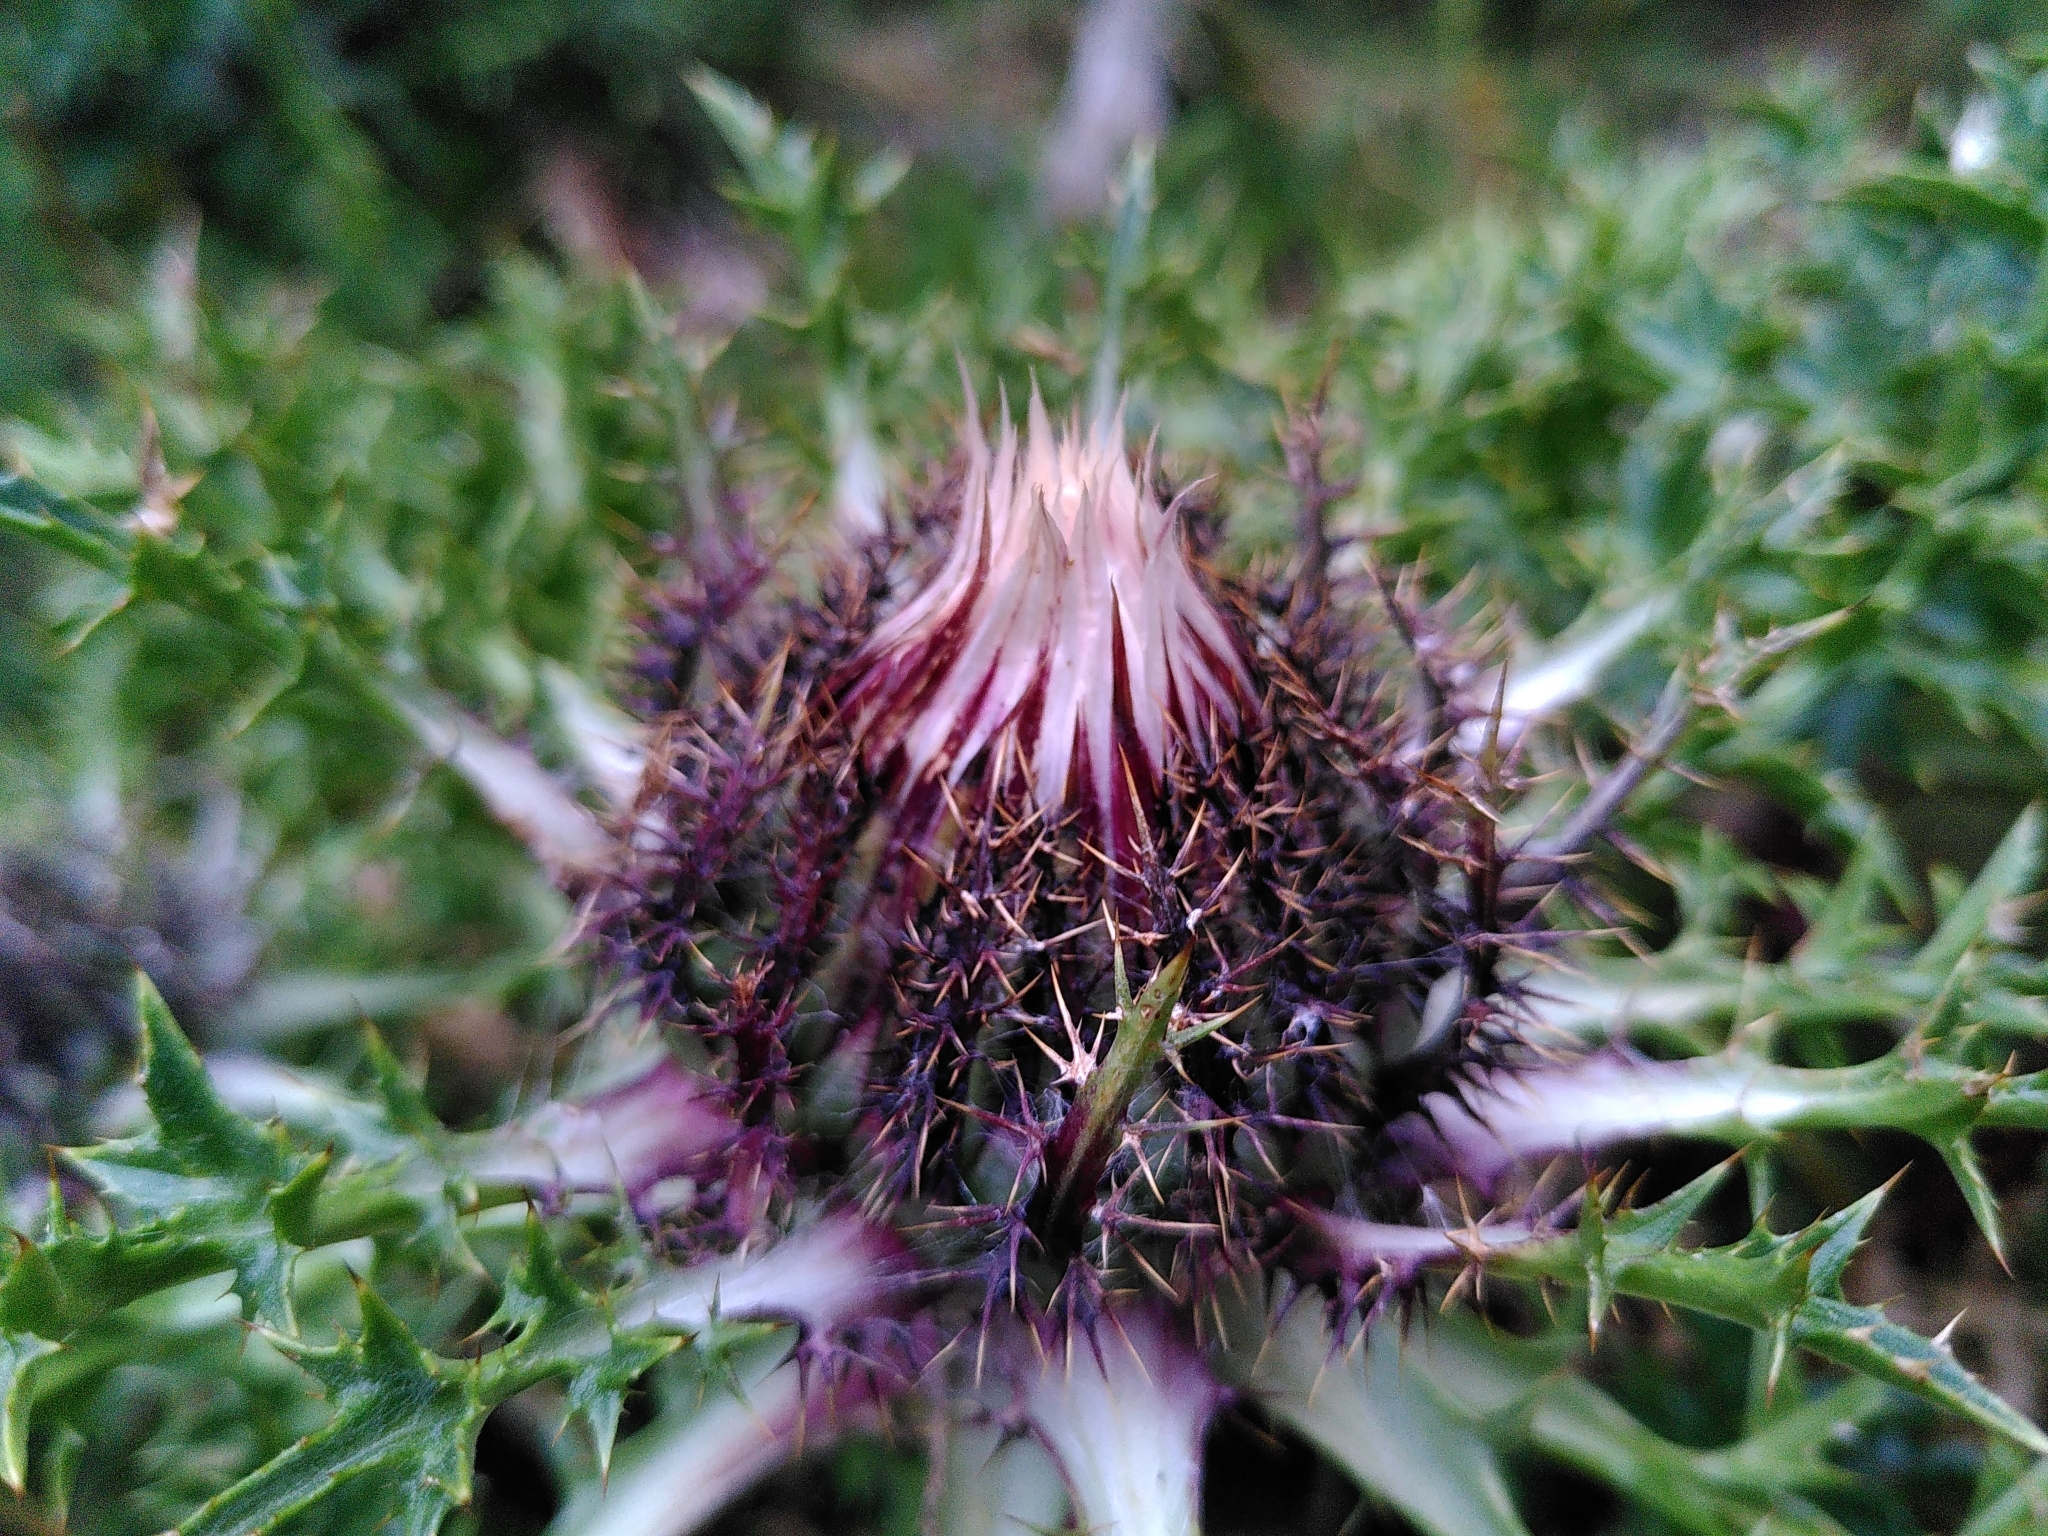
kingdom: Plantae
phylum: Tracheophyta
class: Magnoliopsida
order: Asterales
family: Asteraceae
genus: Carlina
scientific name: Carlina acaulis
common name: Stemless carline thistle
